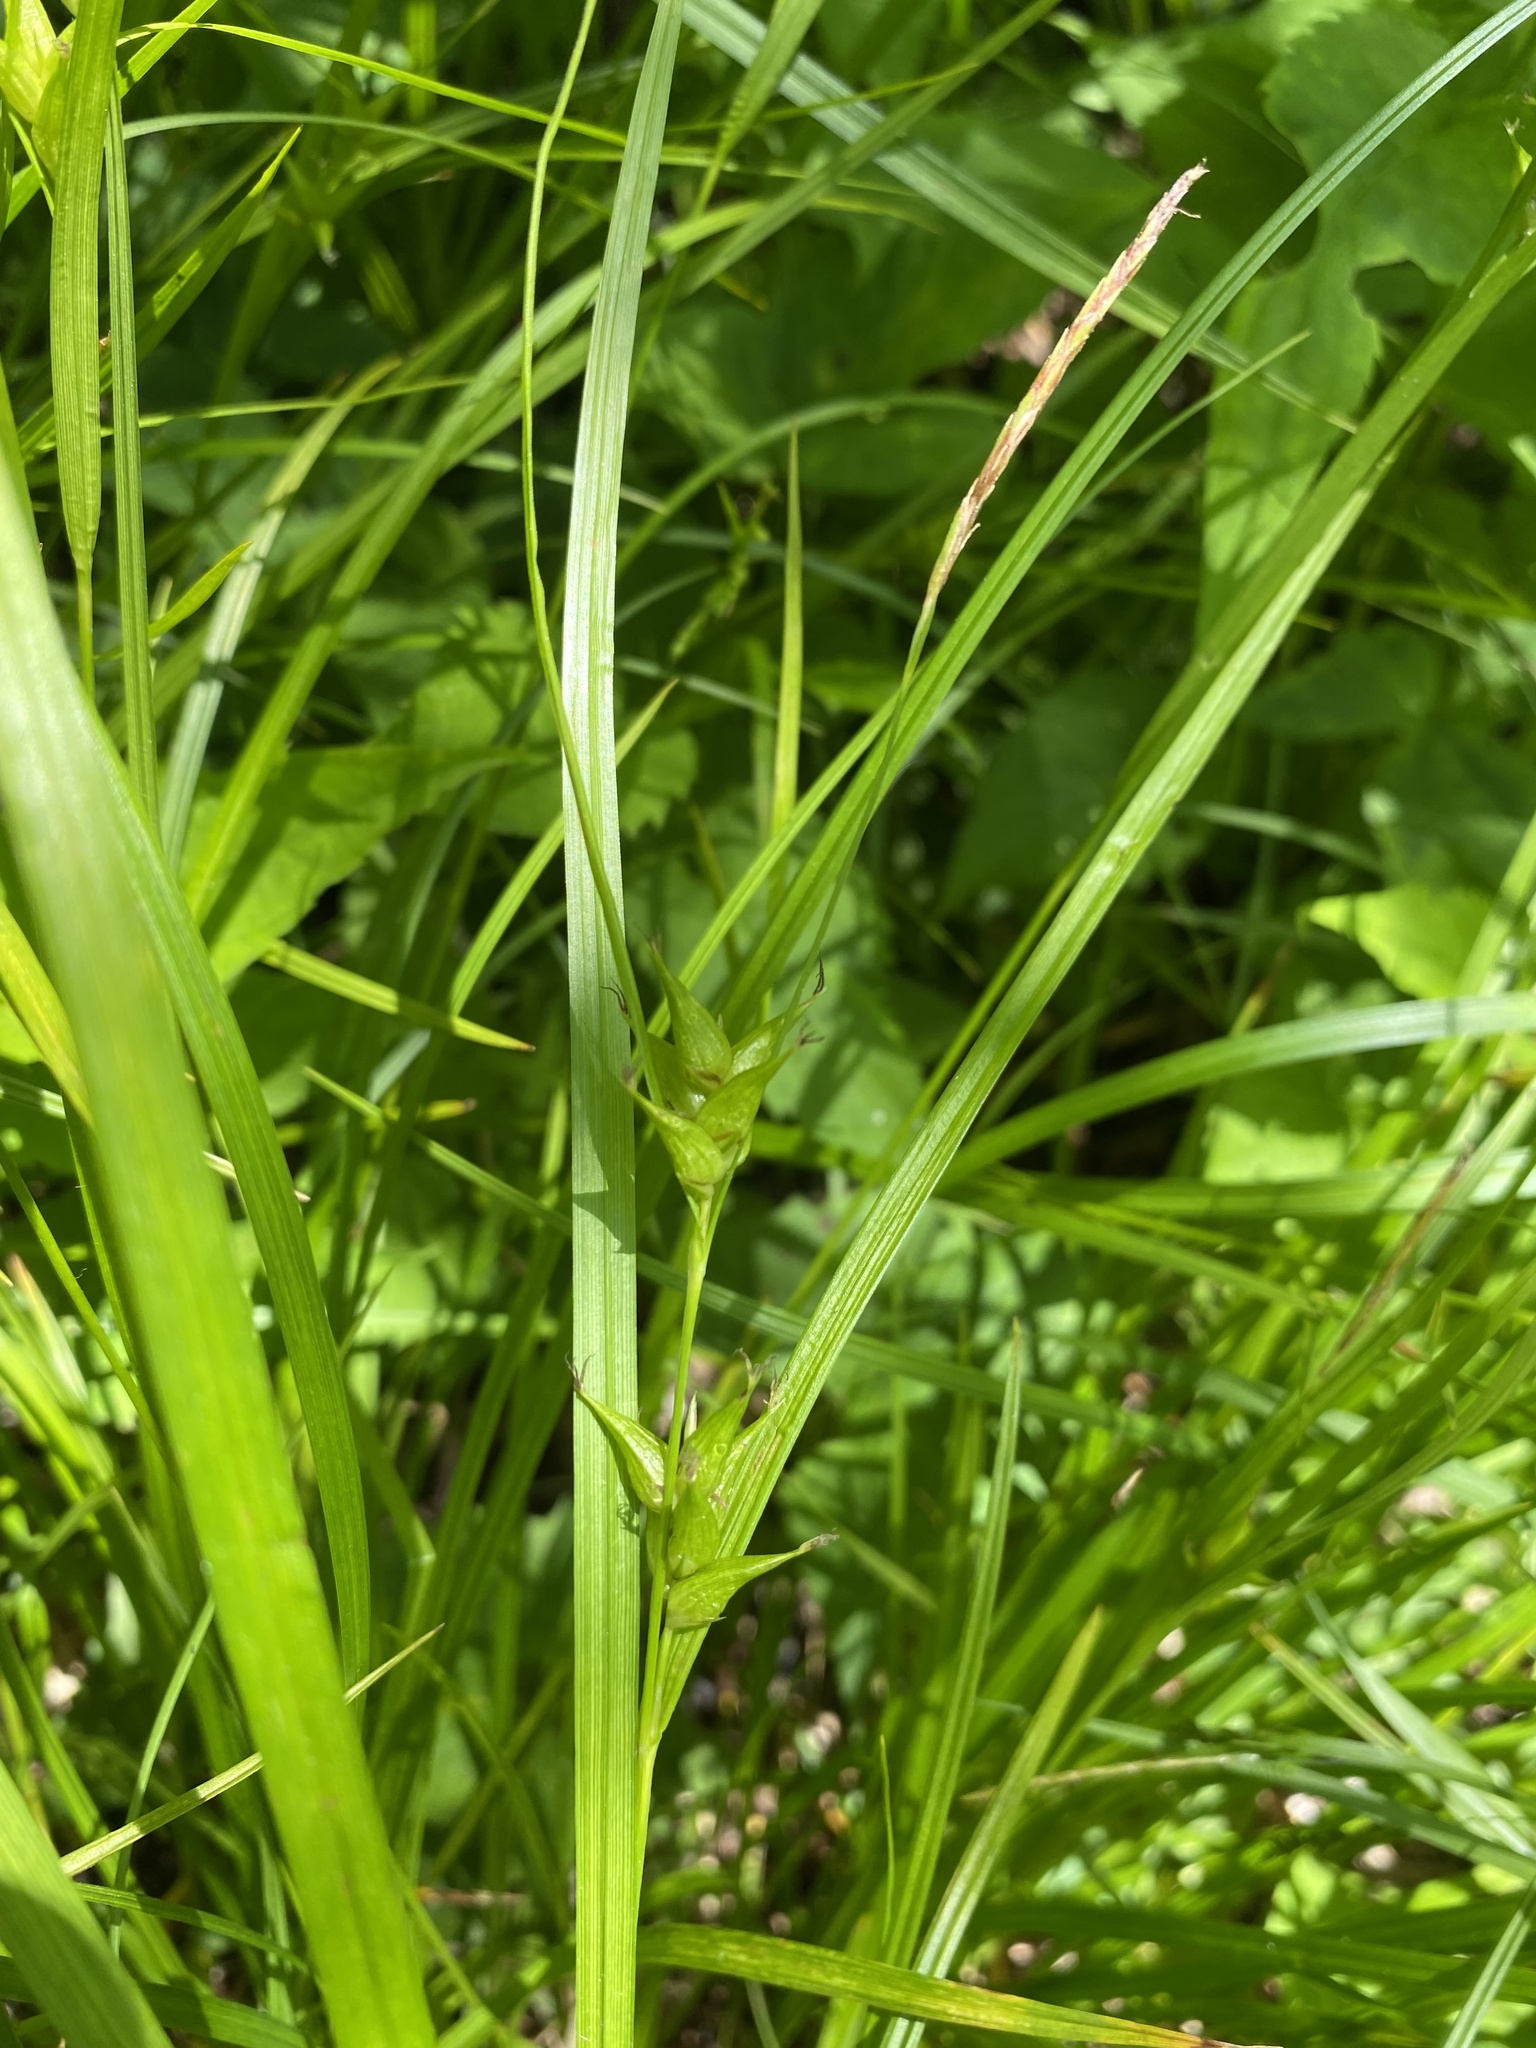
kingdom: Plantae
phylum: Tracheophyta
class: Liliopsida
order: Poales
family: Cyperaceae
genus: Carex
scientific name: Carex intumescens
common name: Greater bladder sedge
